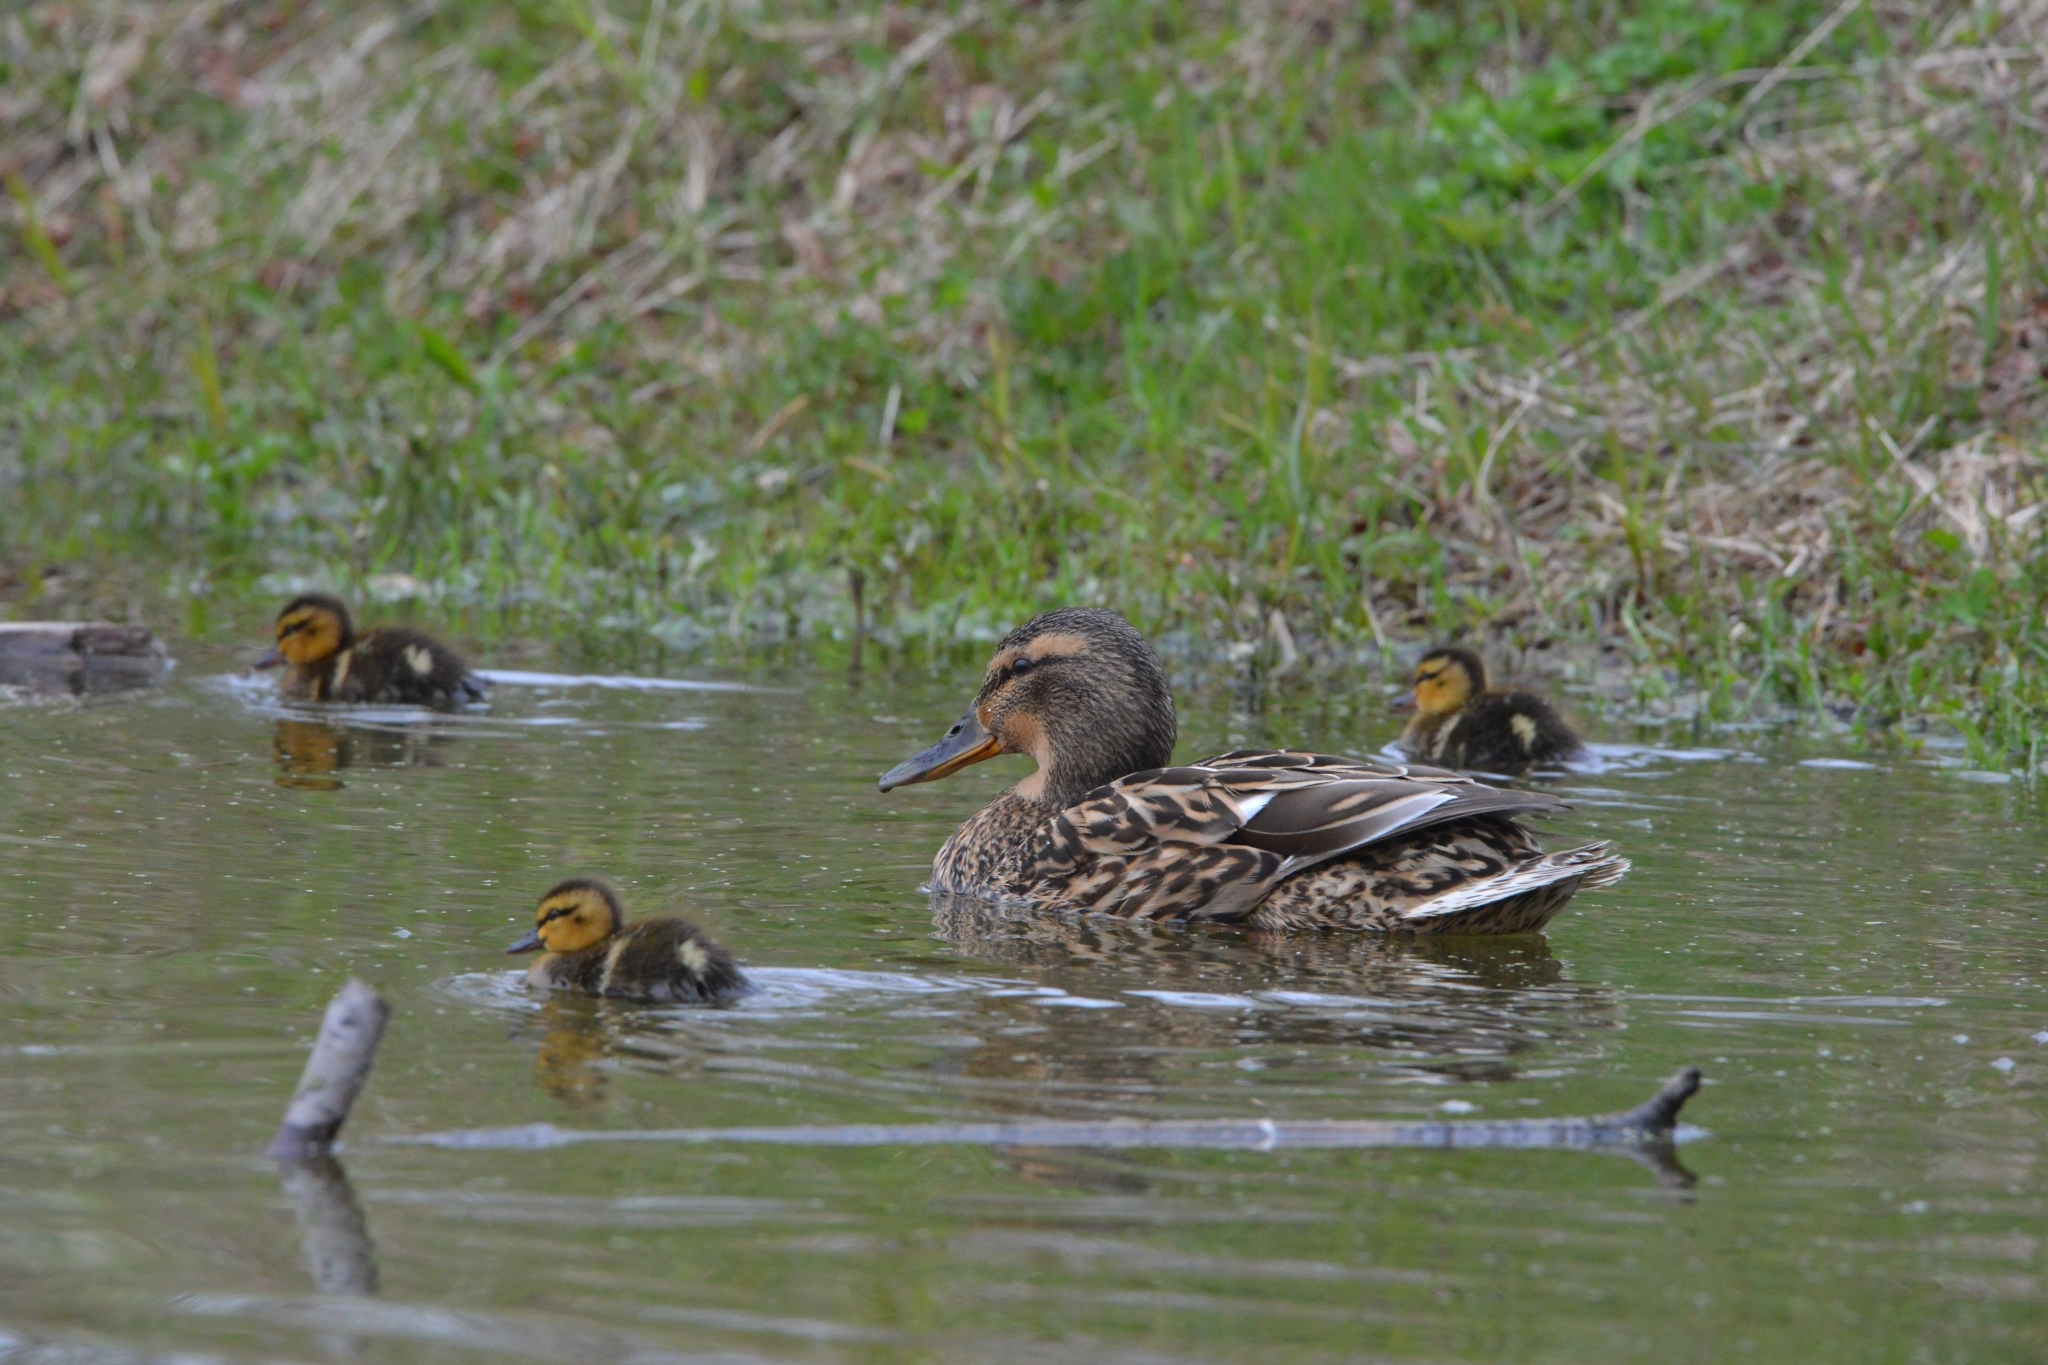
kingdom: Animalia
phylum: Chordata
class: Aves
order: Anseriformes
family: Anatidae
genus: Anas
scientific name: Anas platyrhynchos
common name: Mallard
